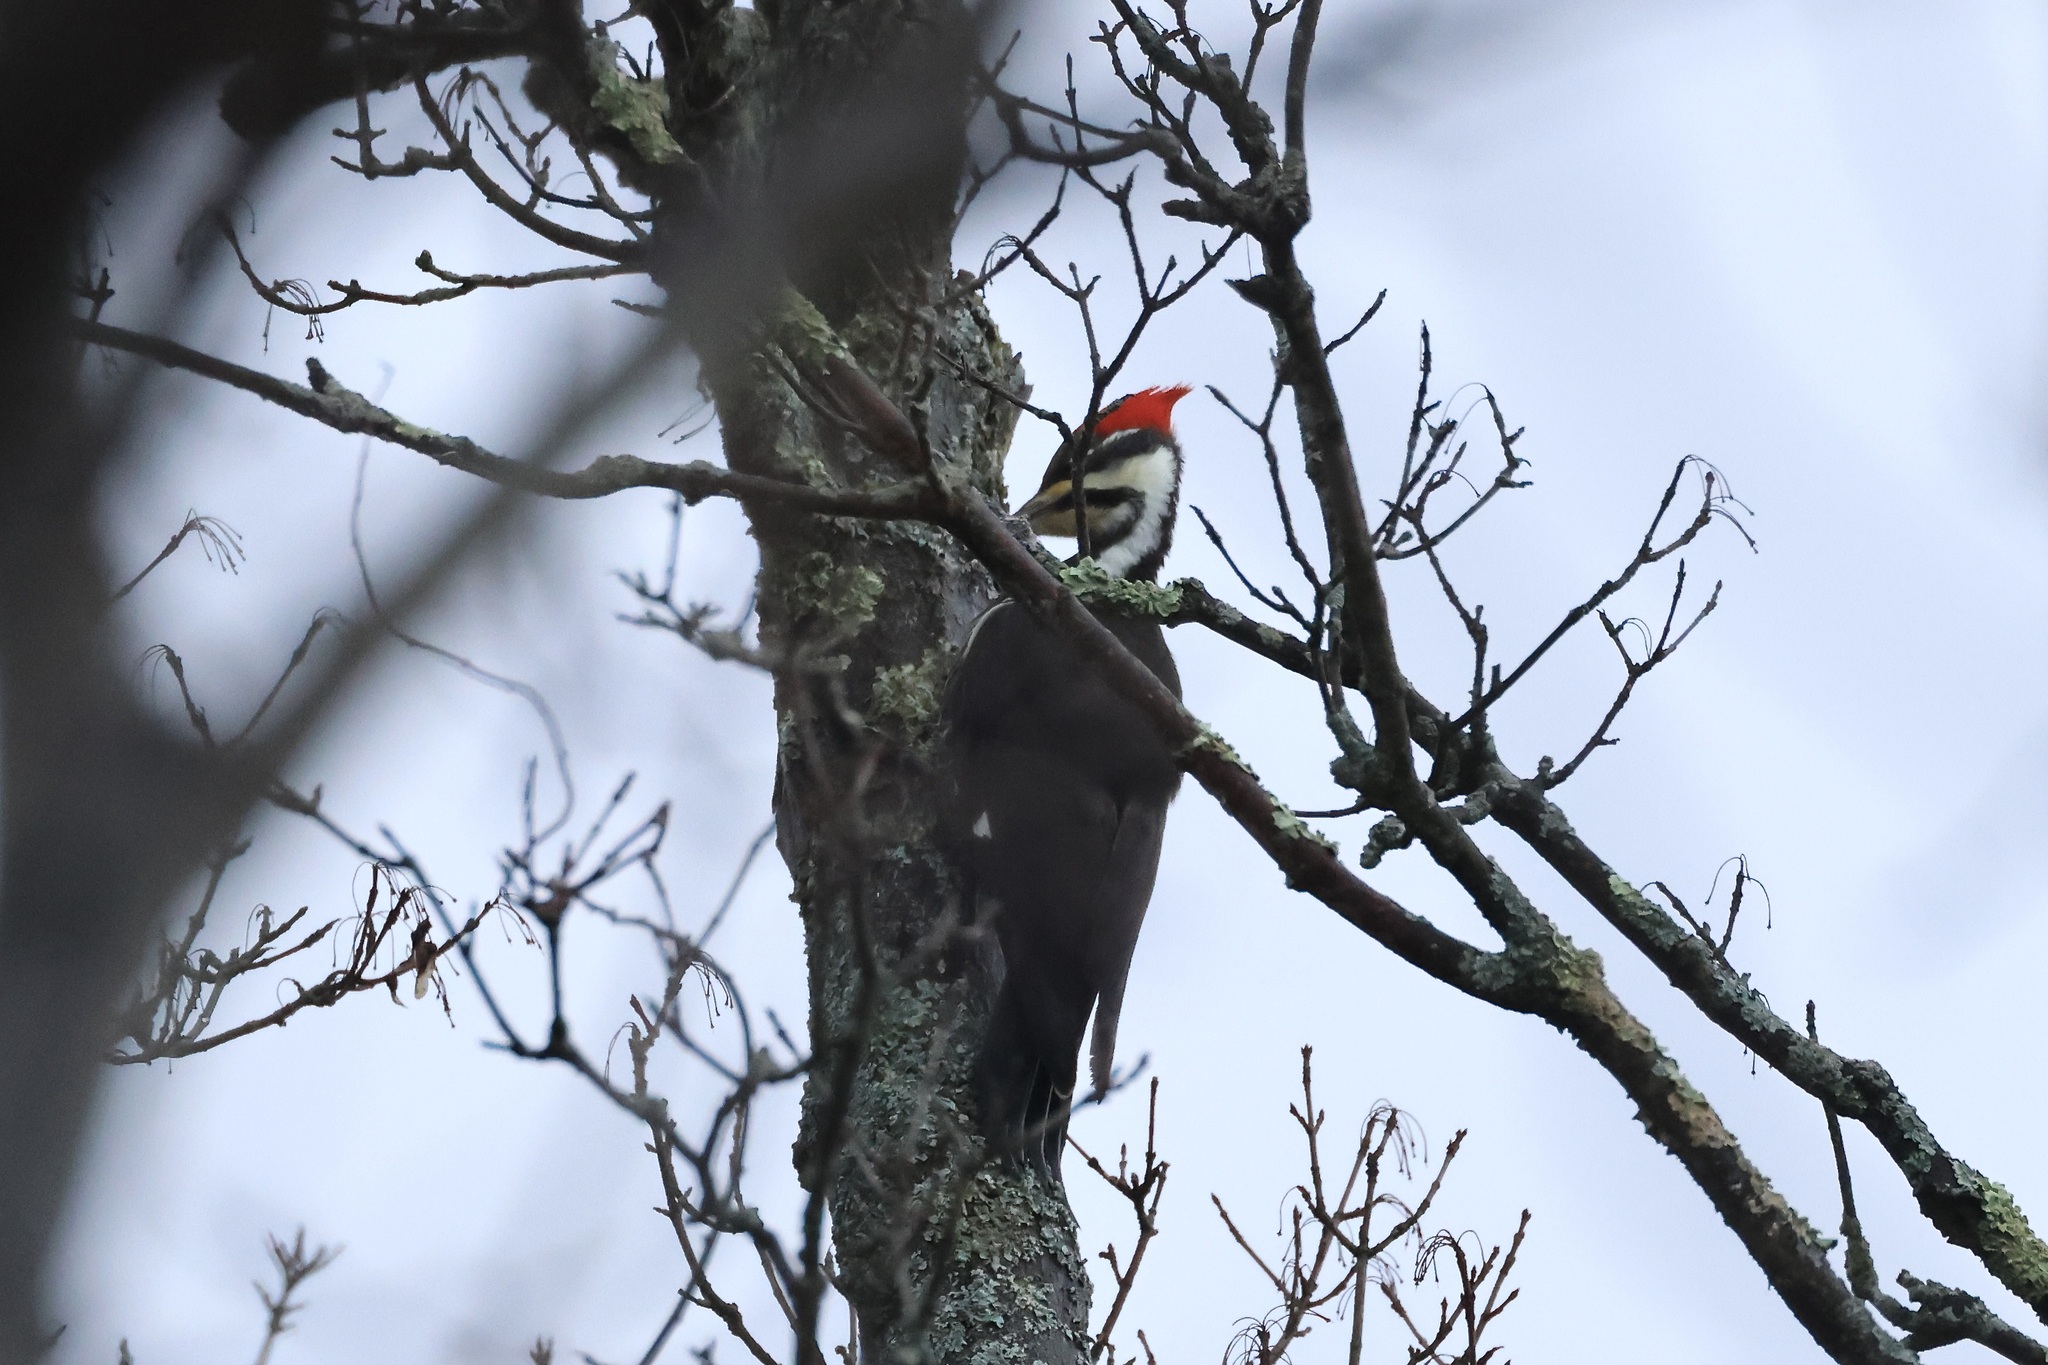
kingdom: Animalia
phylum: Chordata
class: Aves
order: Piciformes
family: Picidae
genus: Dryocopus
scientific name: Dryocopus pileatus
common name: Pileated woodpecker
